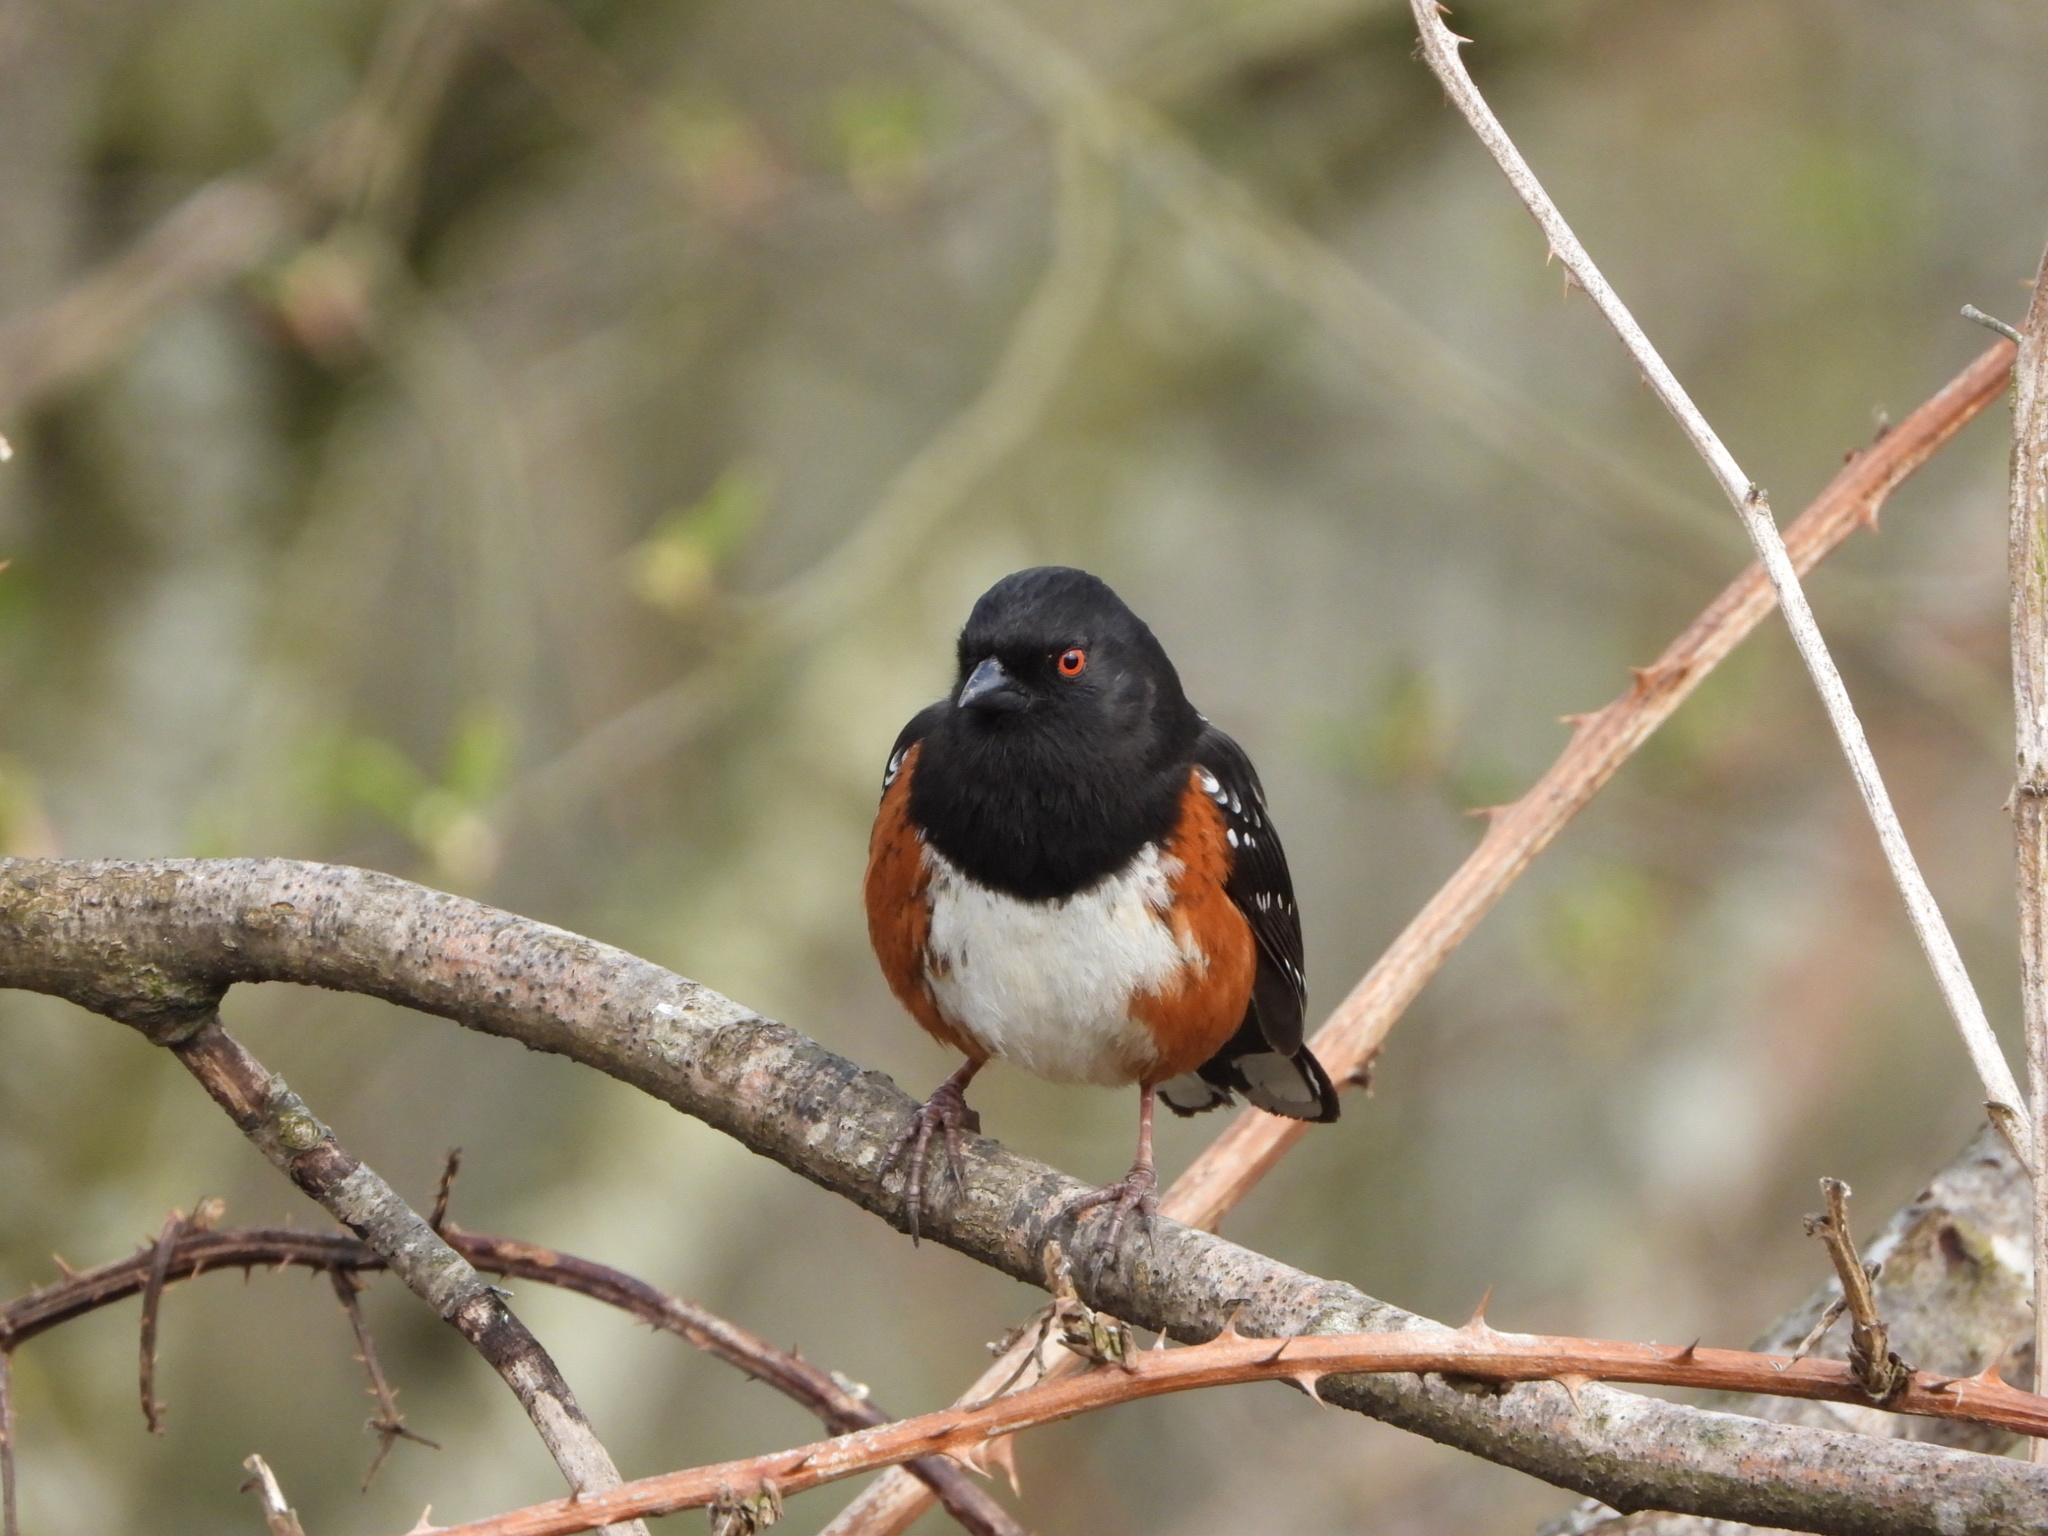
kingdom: Animalia
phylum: Chordata
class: Aves
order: Passeriformes
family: Passerellidae
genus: Pipilo
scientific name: Pipilo maculatus
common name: Spotted towhee
